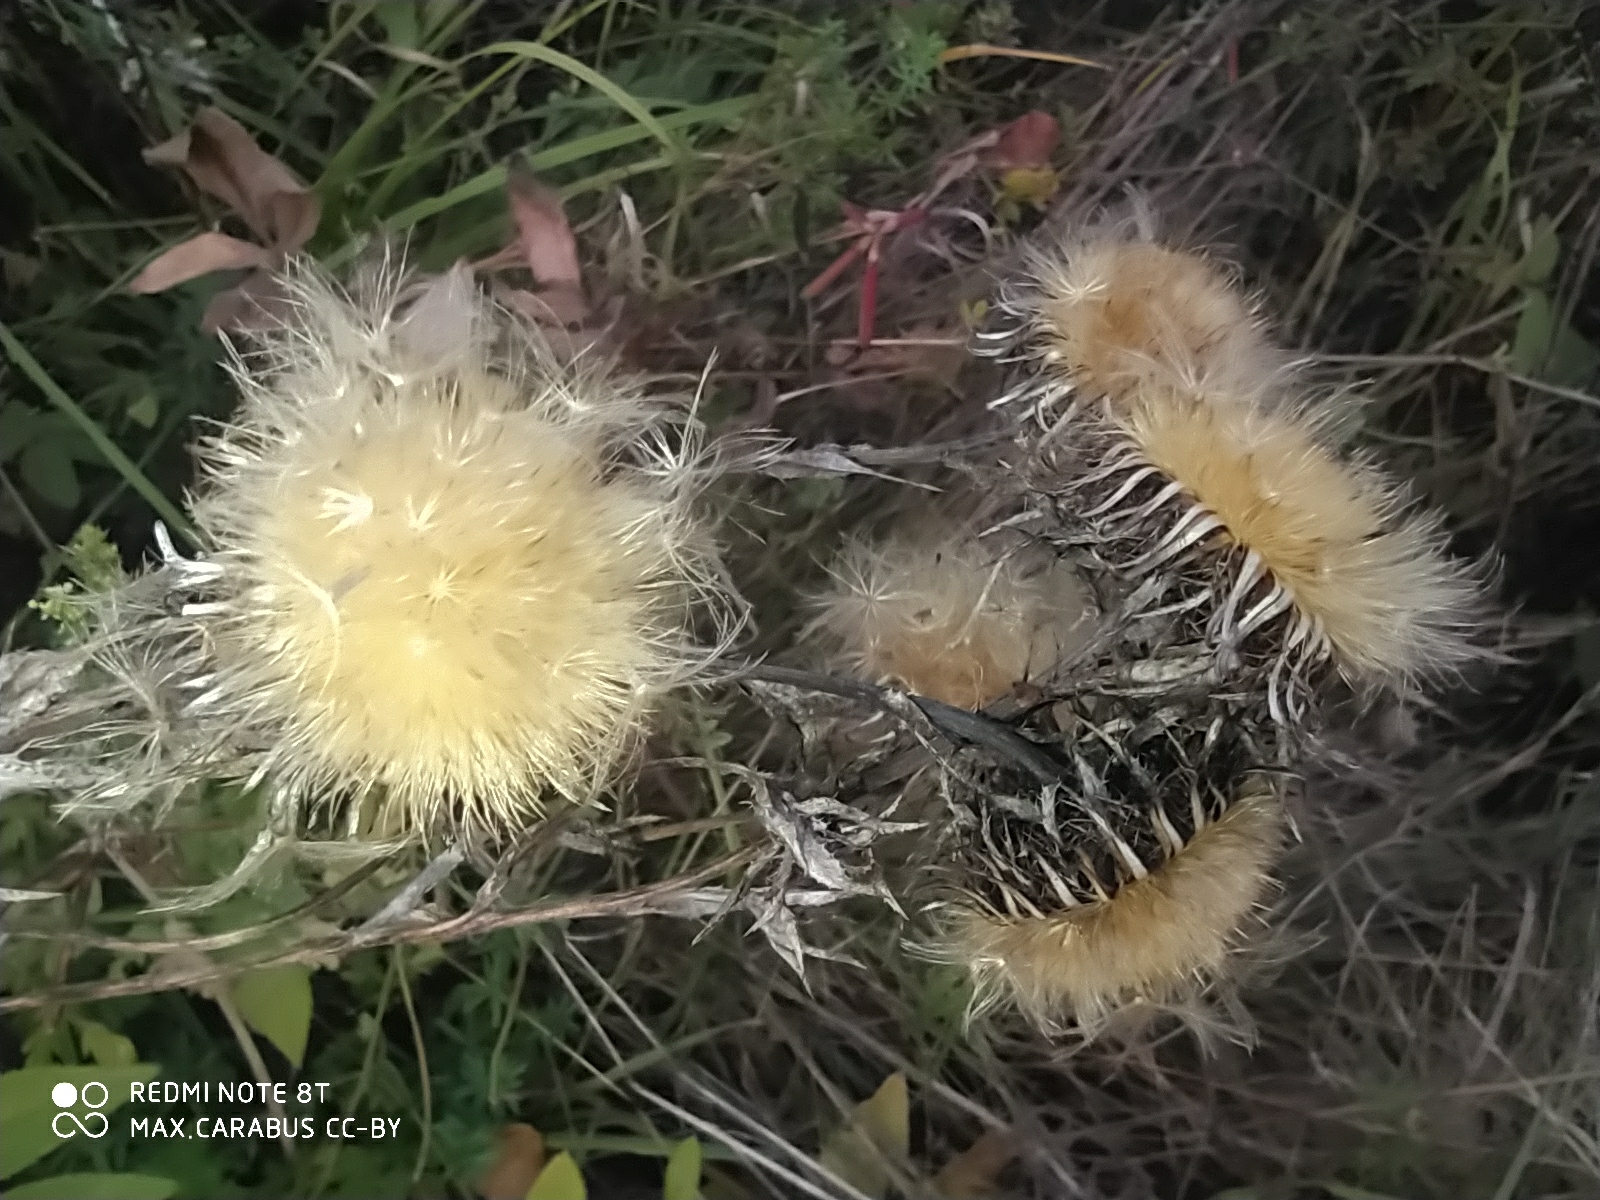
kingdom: Plantae
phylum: Tracheophyta
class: Magnoliopsida
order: Asterales
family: Asteraceae
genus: Carlina
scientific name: Carlina biebersteinii
